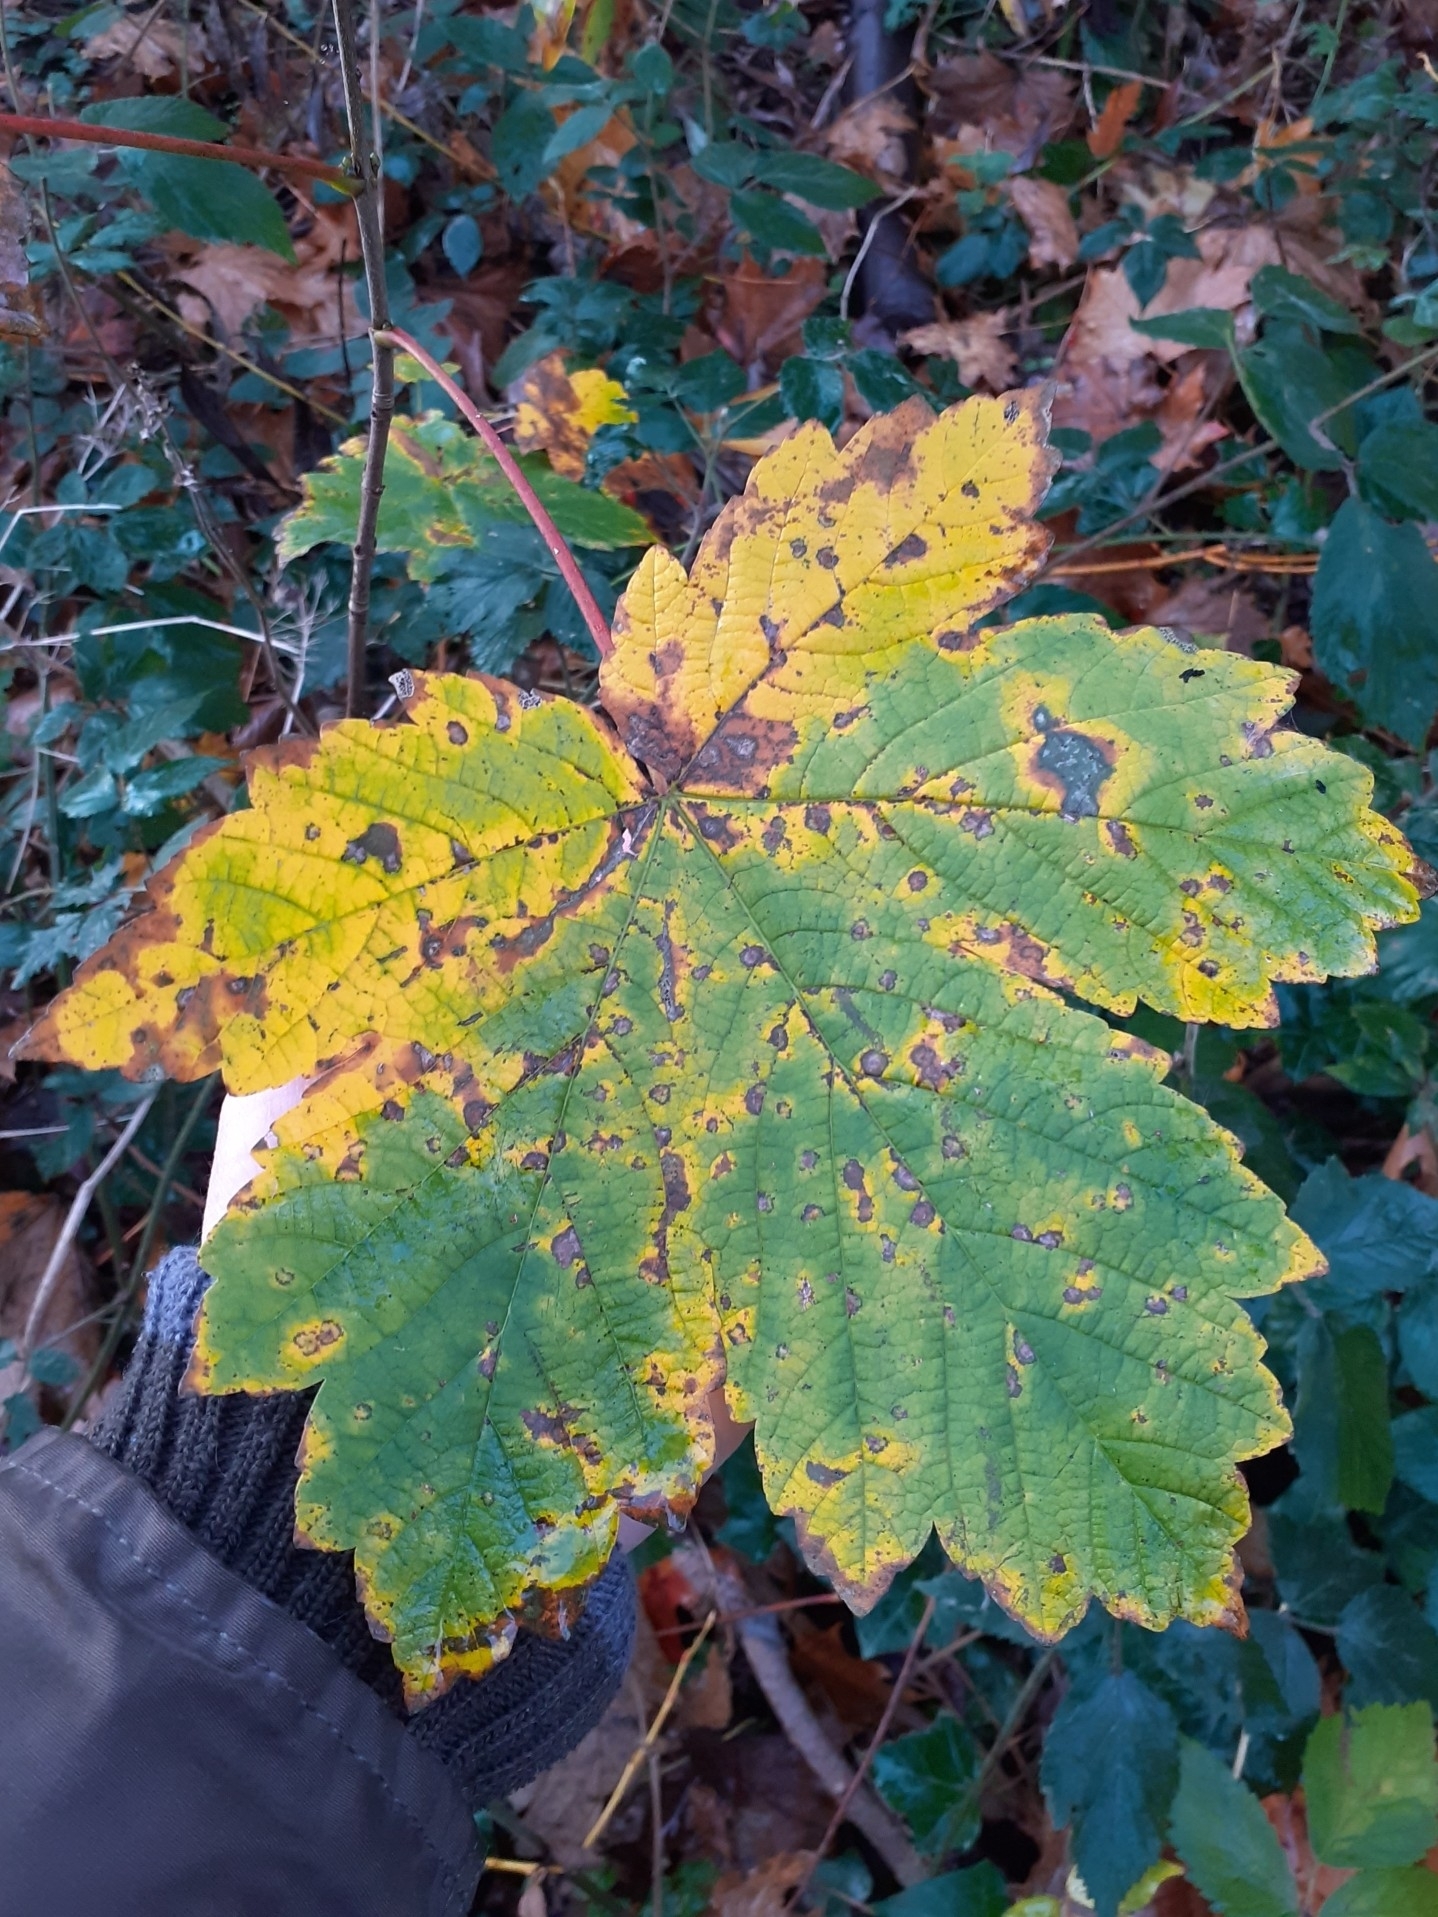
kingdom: Plantae
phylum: Tracheophyta
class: Magnoliopsida
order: Sapindales
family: Sapindaceae
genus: Acer
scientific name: Acer pseudoplatanus
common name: Sycamore
